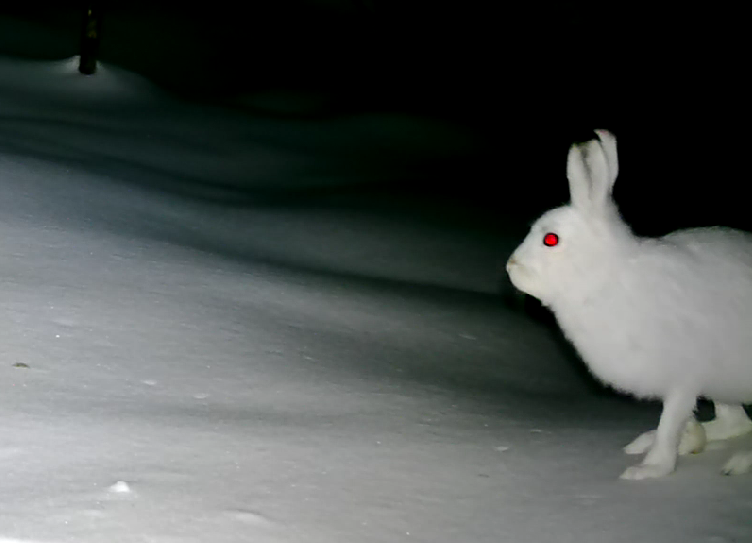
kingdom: Animalia
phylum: Chordata
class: Mammalia
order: Lagomorpha
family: Leporidae
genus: Lepus
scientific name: Lepus timidus
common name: Mountain hare
